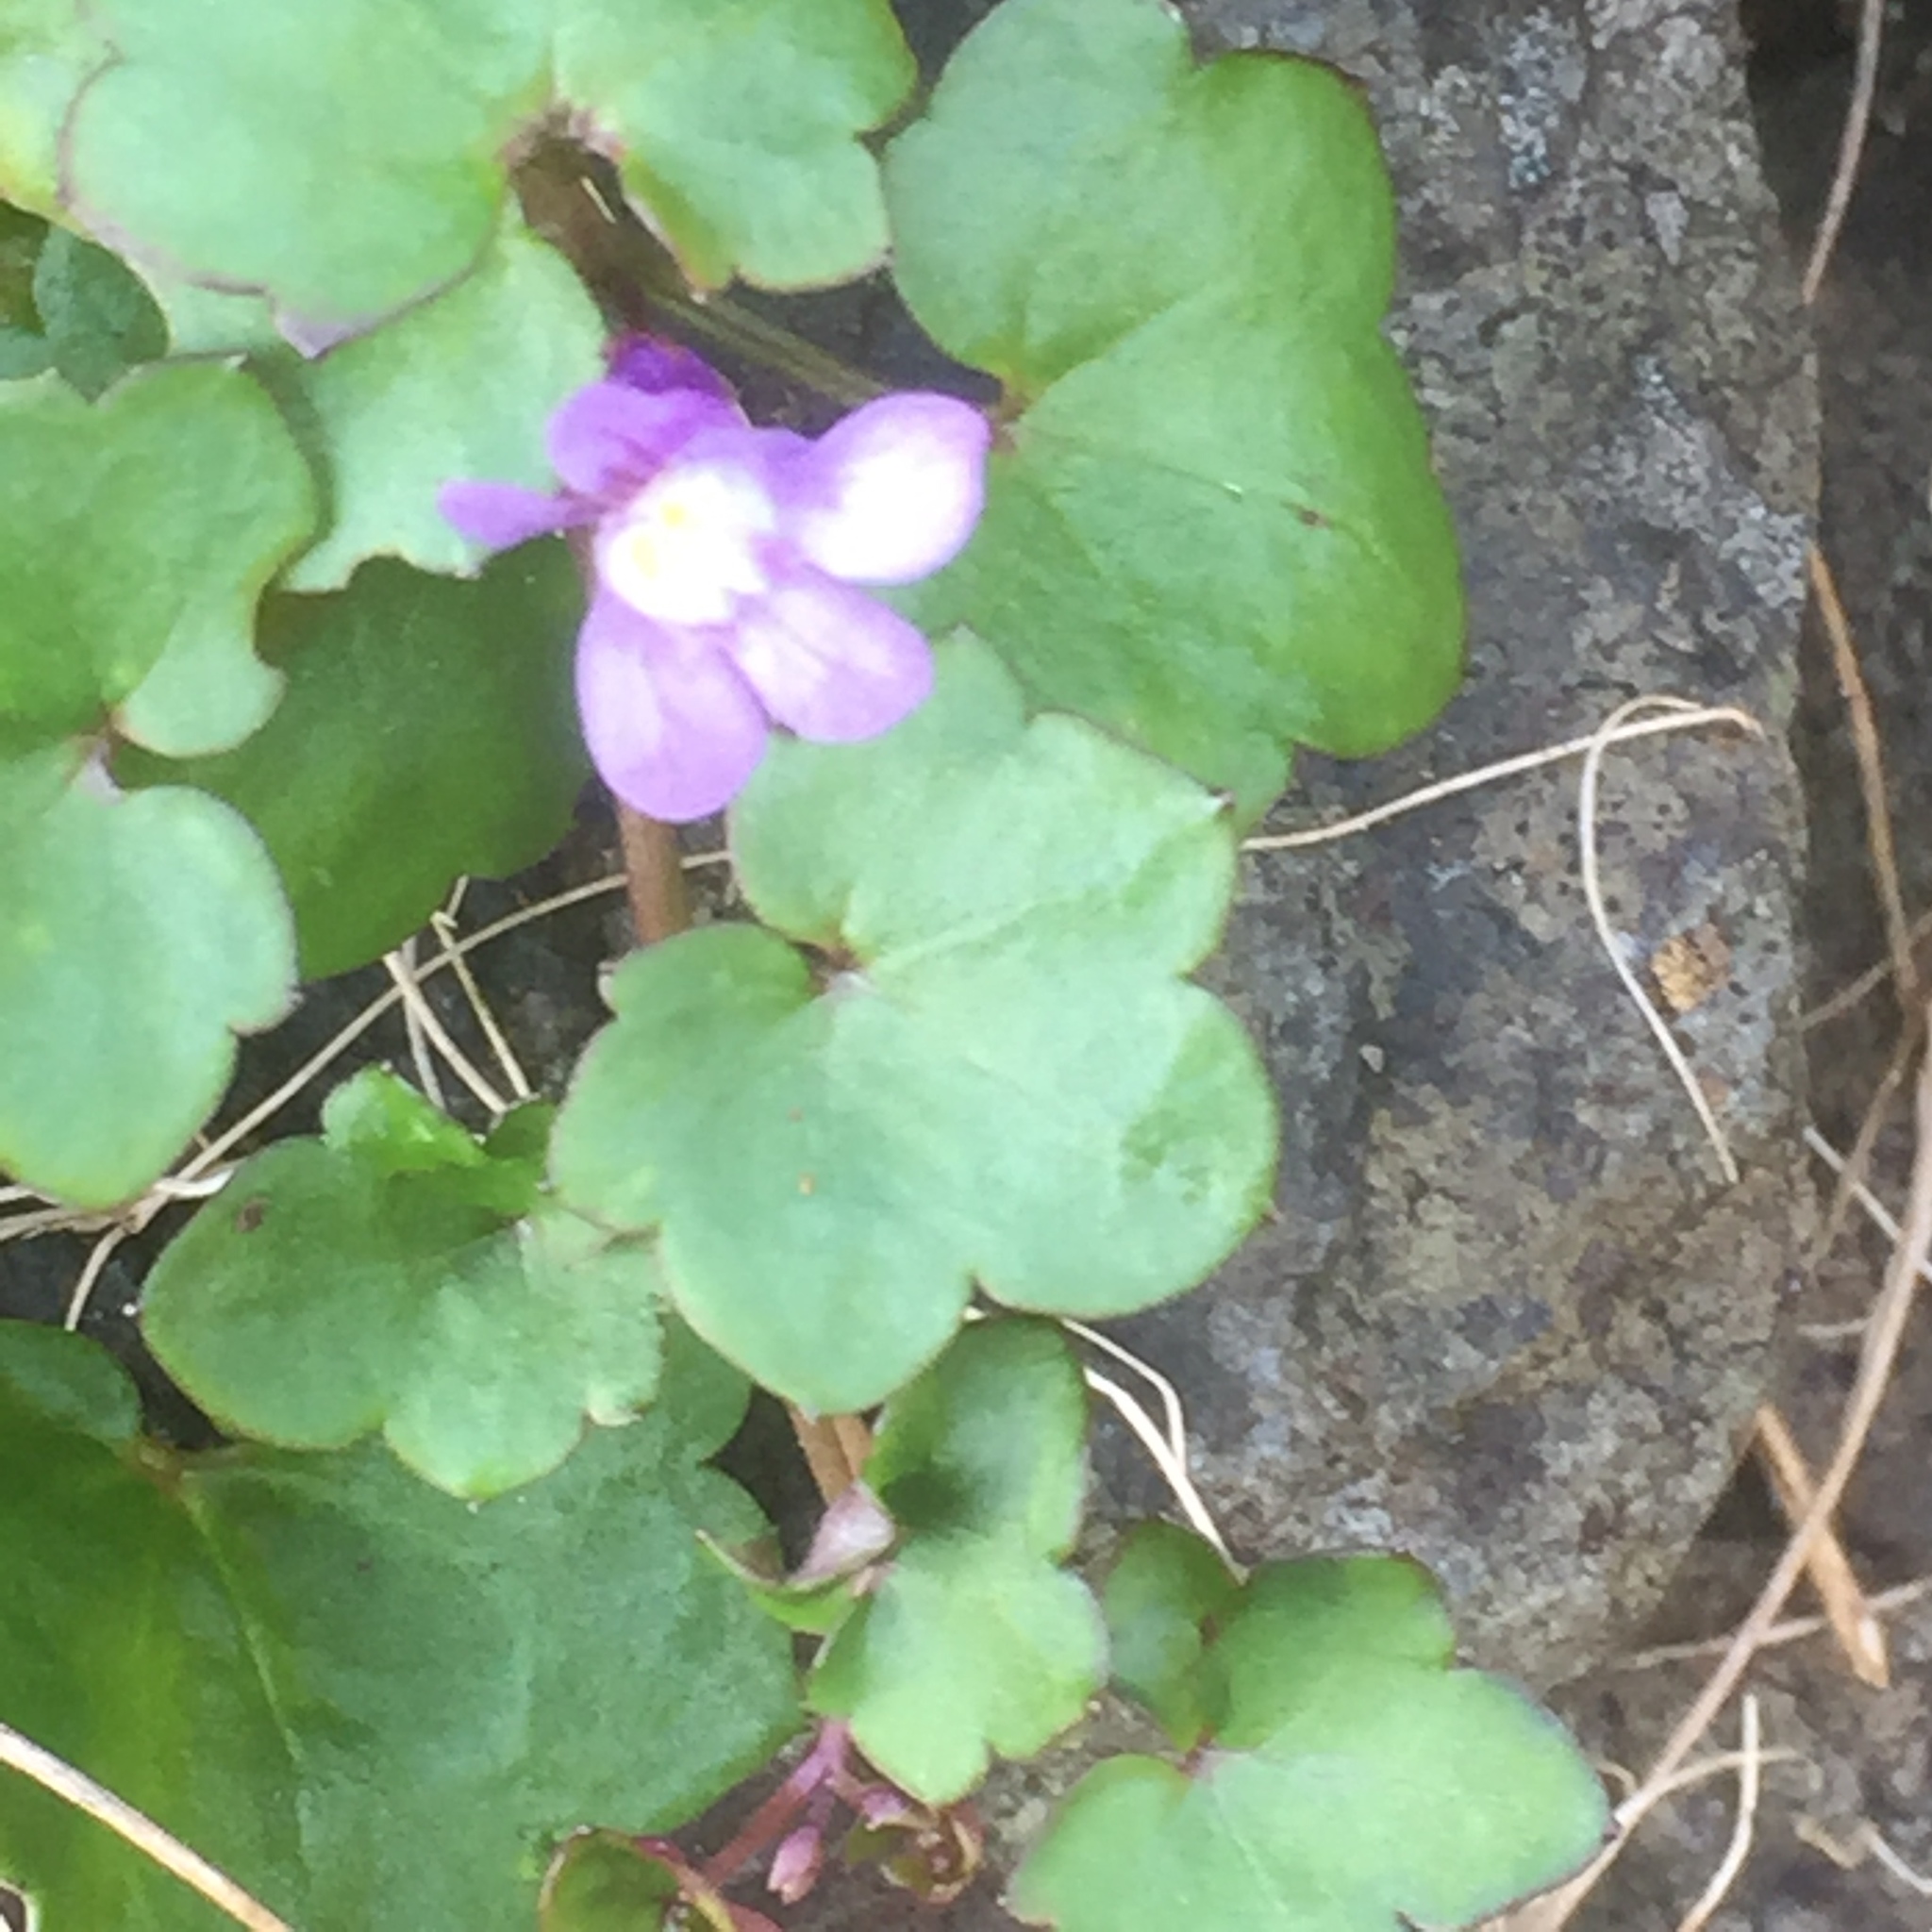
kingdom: Plantae
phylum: Tracheophyta
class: Magnoliopsida
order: Lamiales
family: Plantaginaceae
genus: Cymbalaria
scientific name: Cymbalaria muralis
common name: Ivy-leaved toadflax
